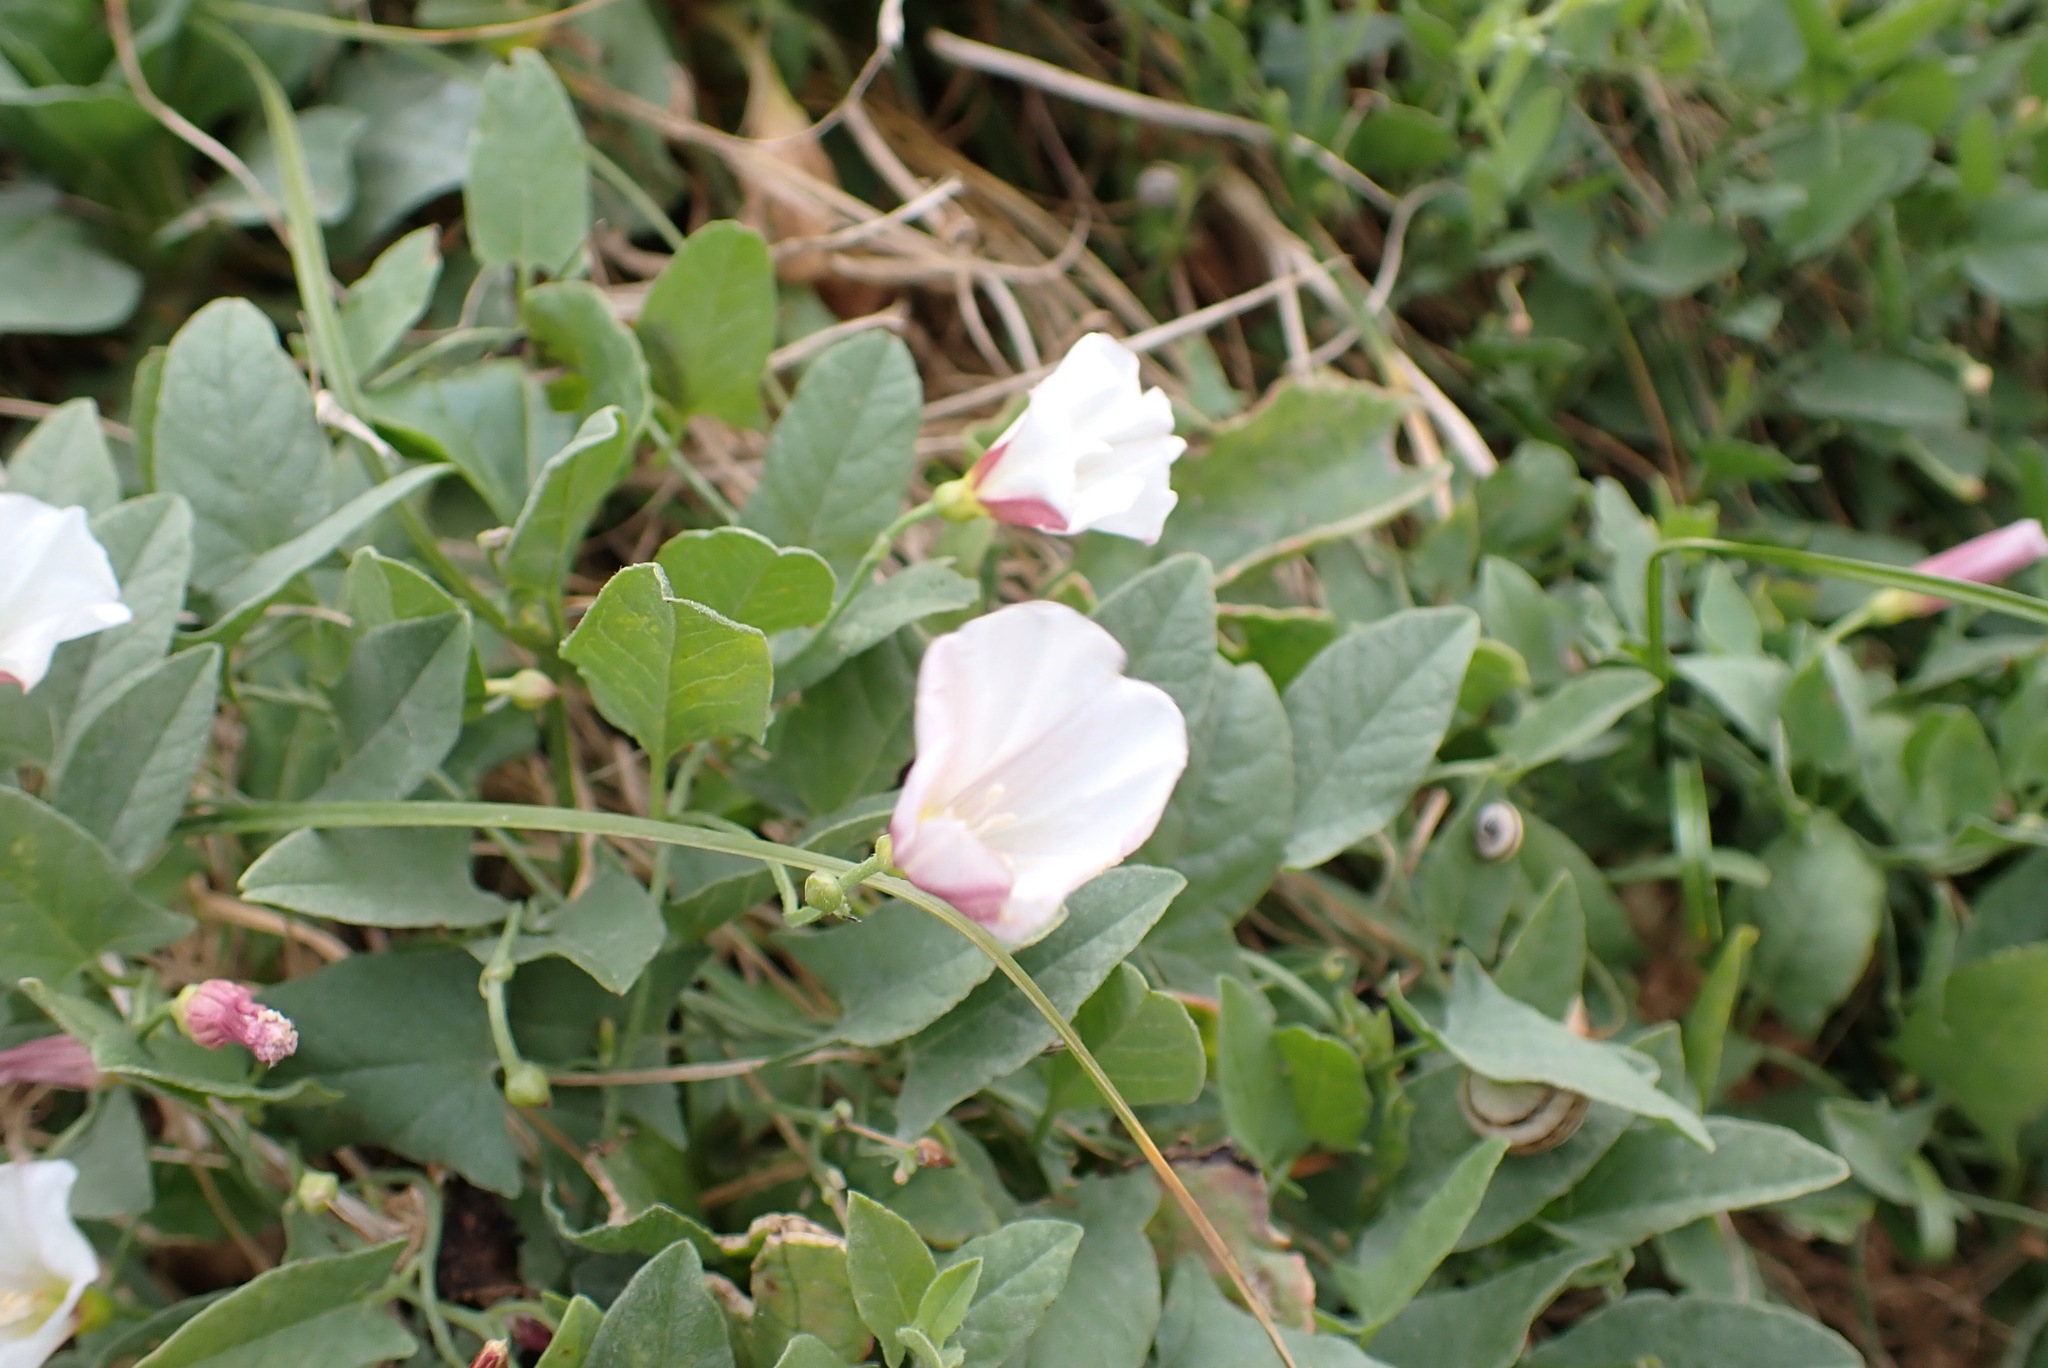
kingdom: Plantae
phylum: Tracheophyta
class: Magnoliopsida
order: Solanales
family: Convolvulaceae
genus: Convolvulus
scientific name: Convolvulus arvensis
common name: Field bindweed
